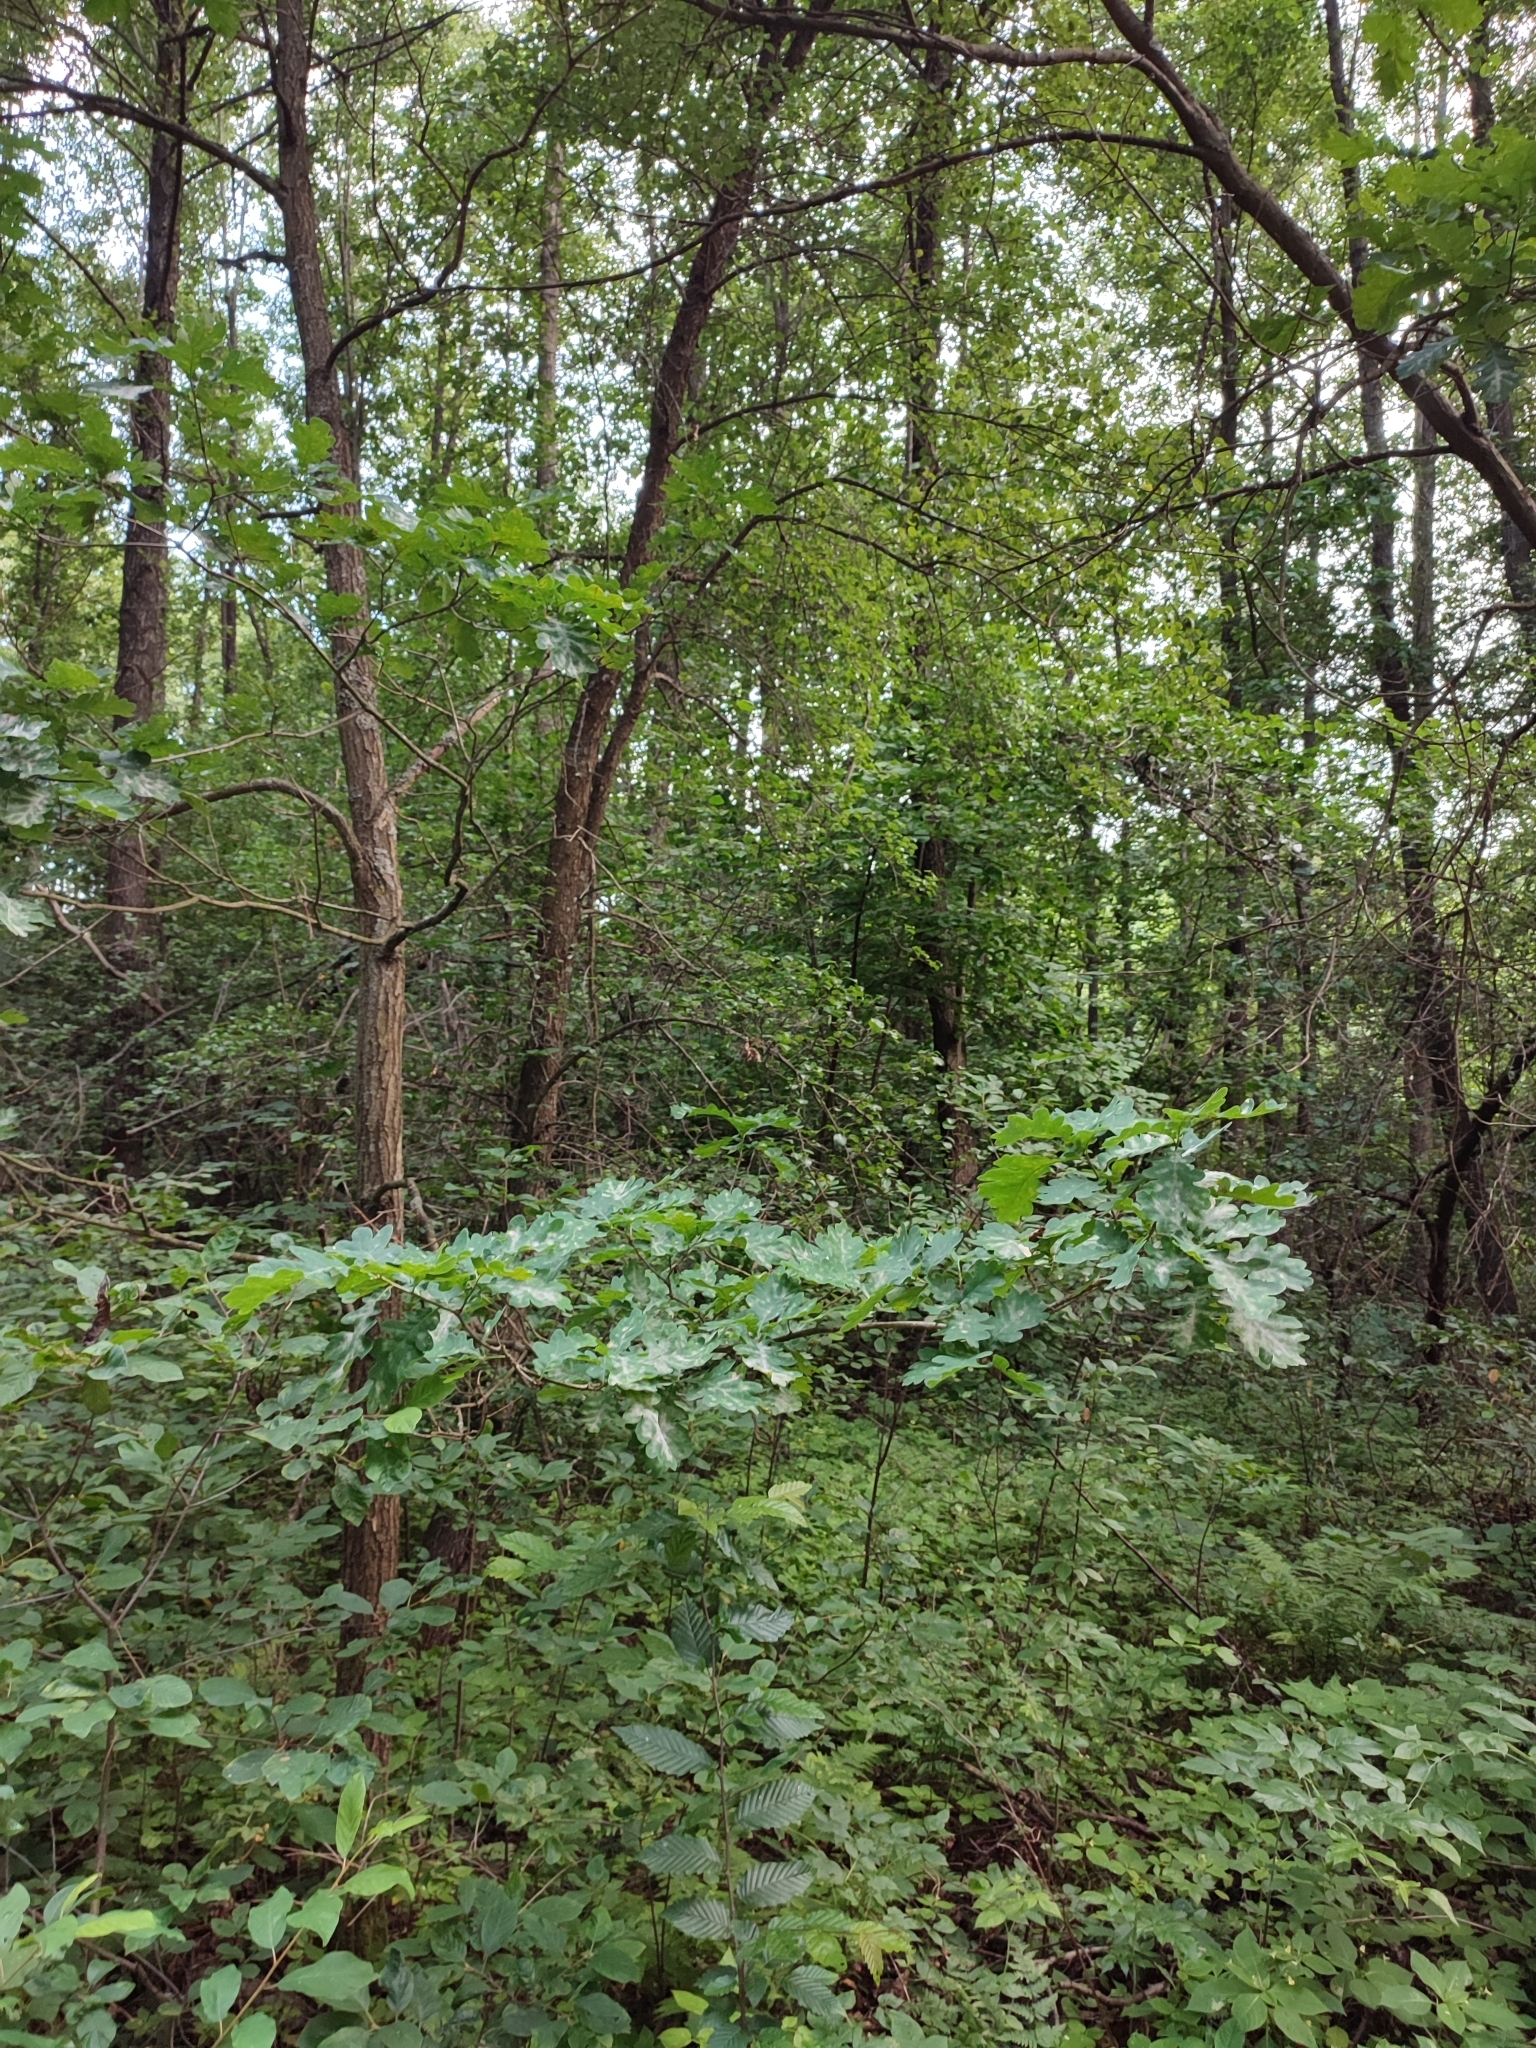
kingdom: Plantae
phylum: Tracheophyta
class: Magnoliopsida
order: Fagales
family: Fagaceae
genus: Quercus
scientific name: Quercus robur
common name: Pedunculate oak
